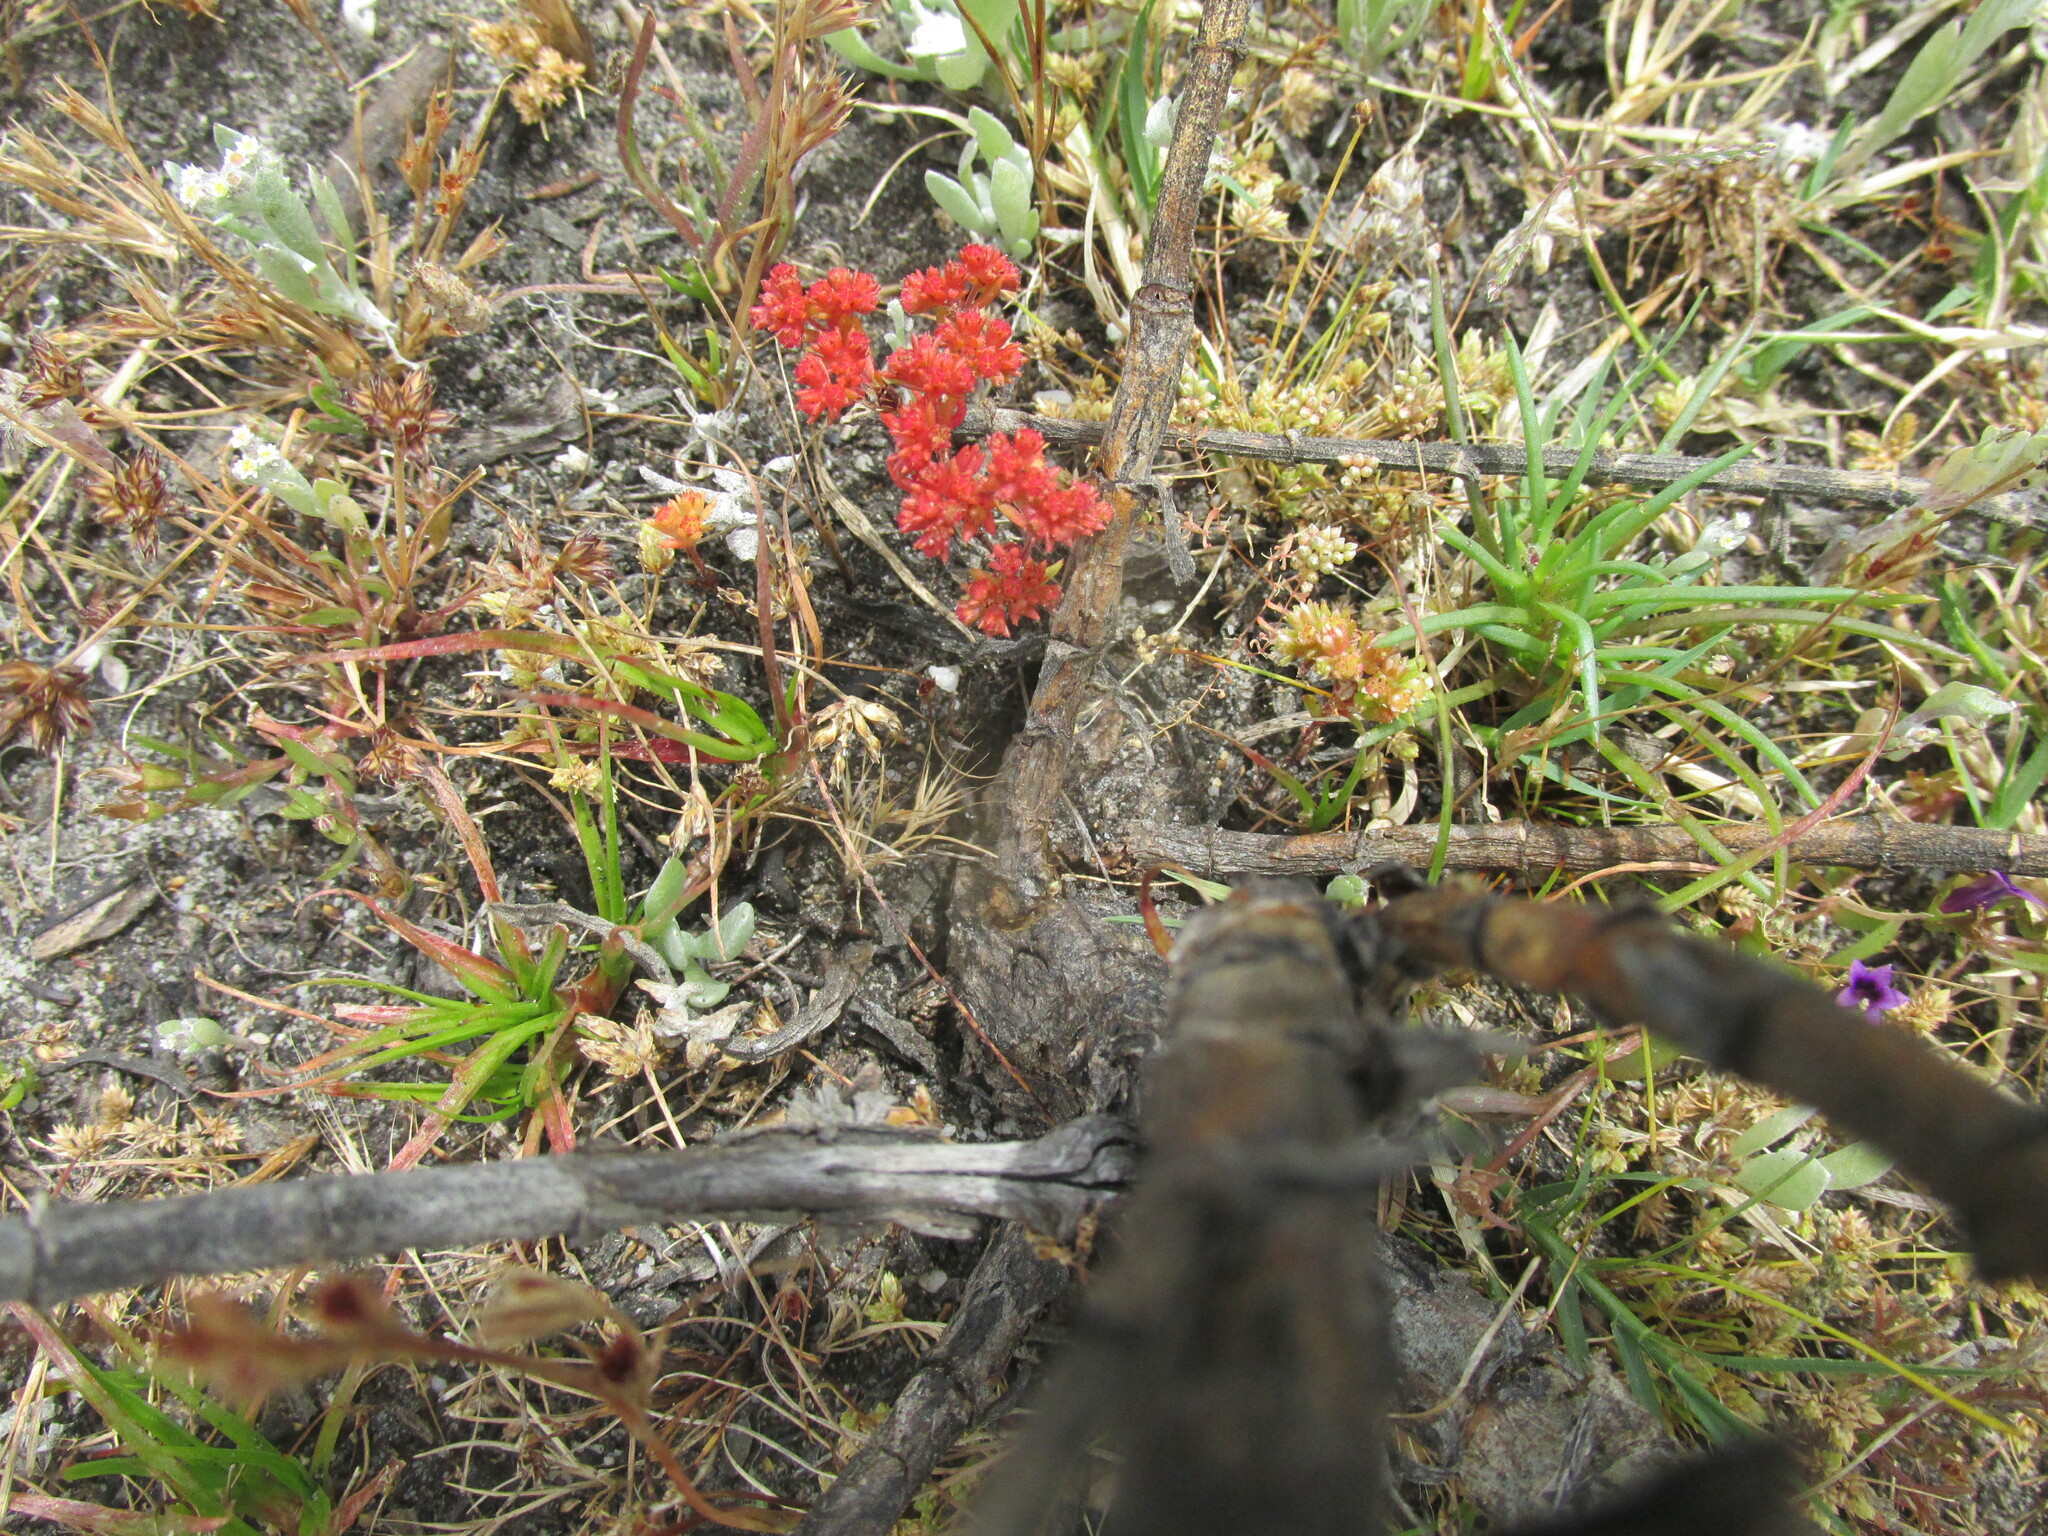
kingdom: Plantae
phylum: Tracheophyta
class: Magnoliopsida
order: Saxifragales
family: Crassulaceae
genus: Crassula
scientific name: Crassula glomerata
